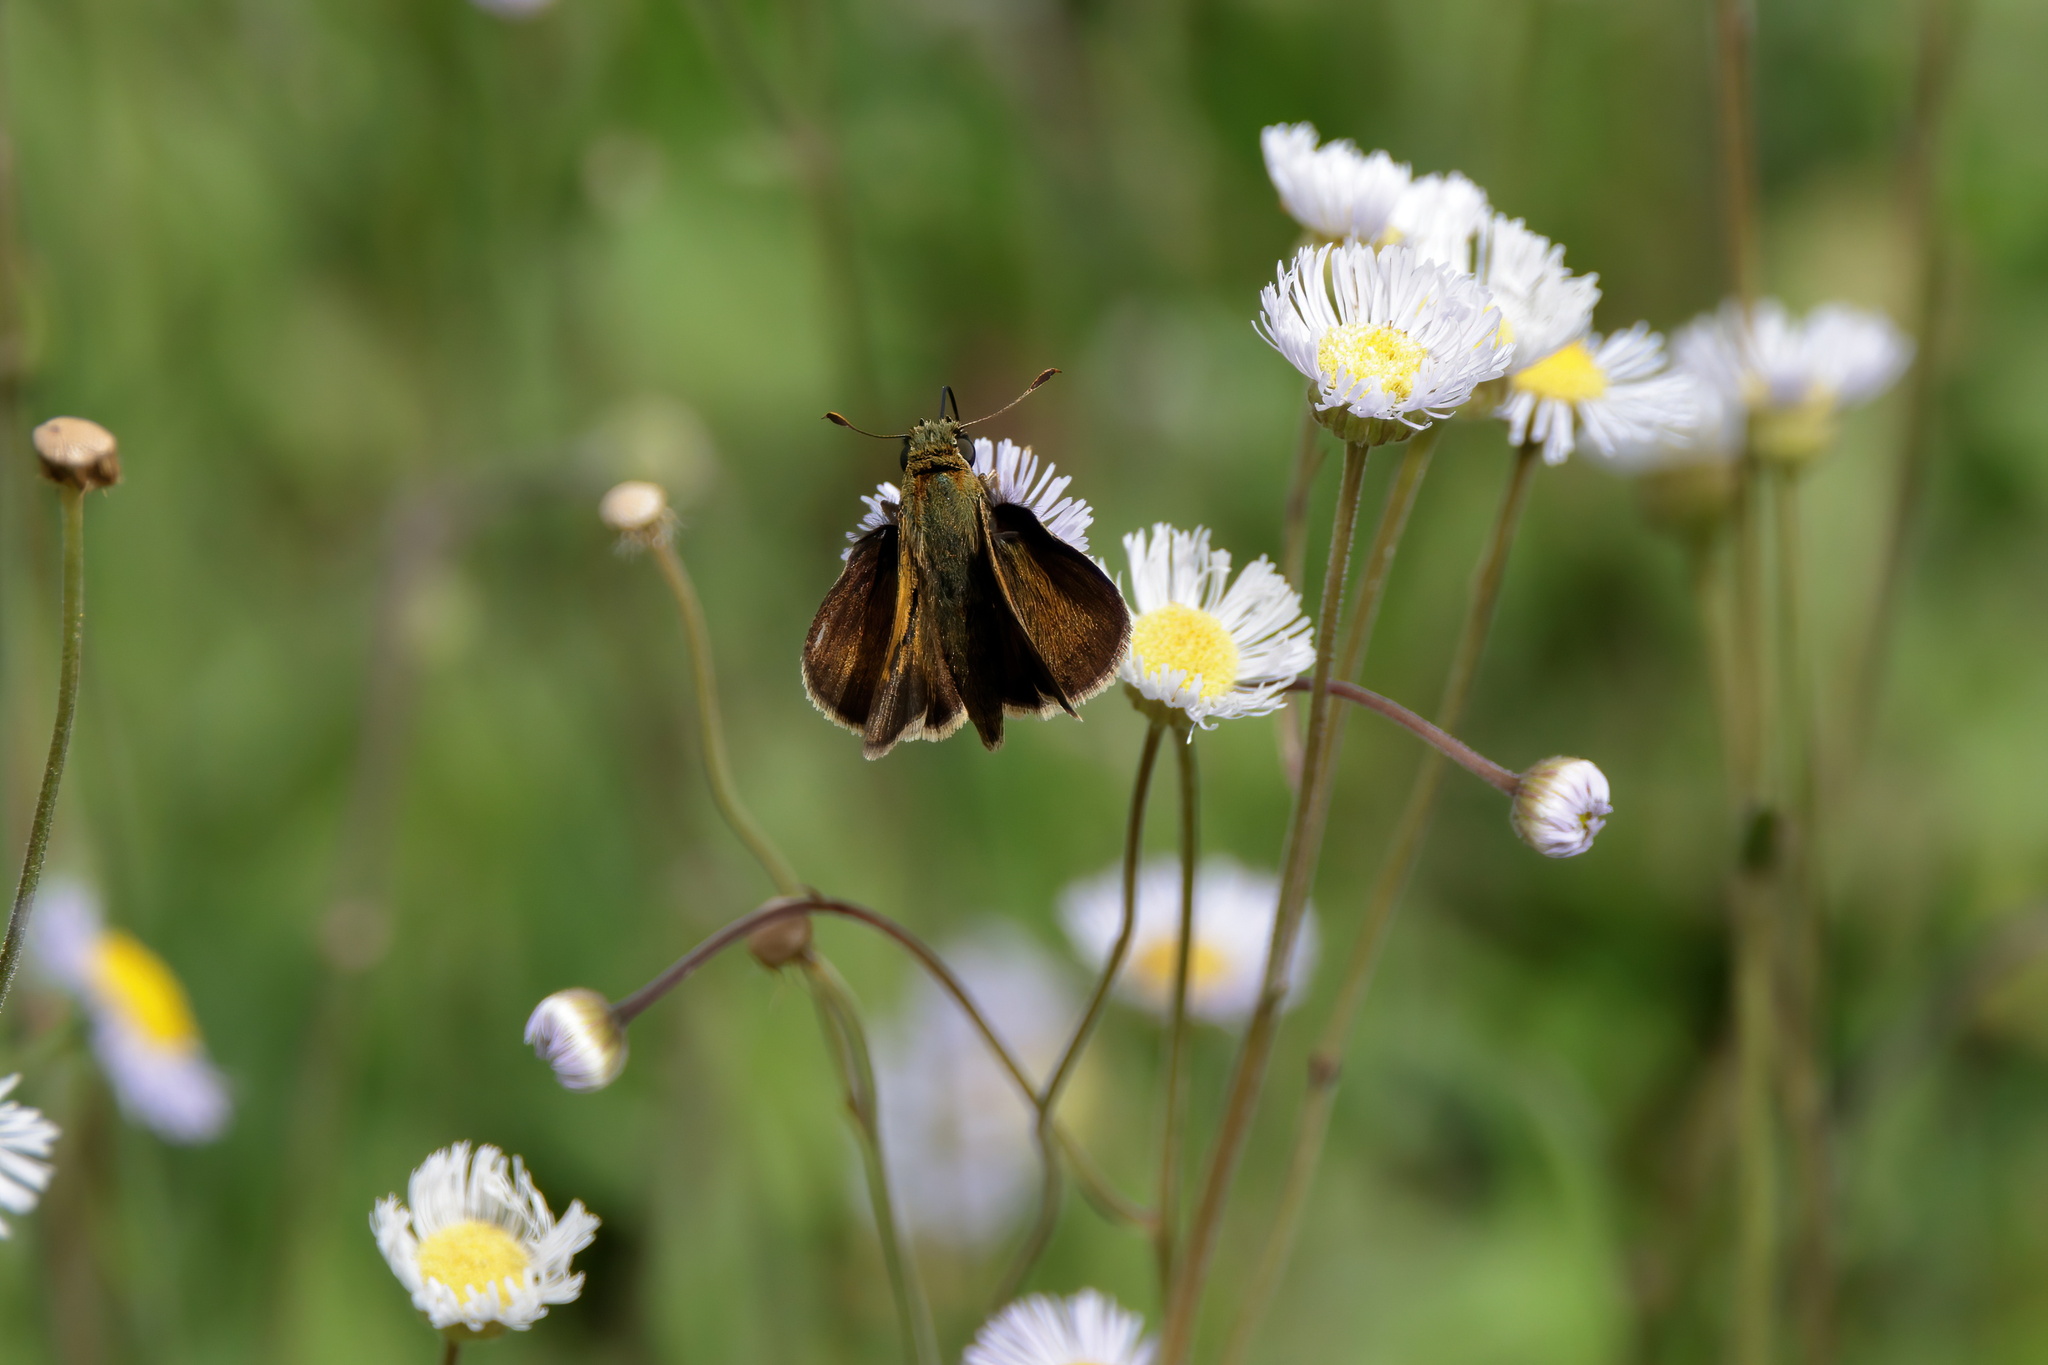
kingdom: Animalia
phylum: Arthropoda
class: Insecta
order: Lepidoptera
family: Hesperiidae
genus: Polites
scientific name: Polites otho
